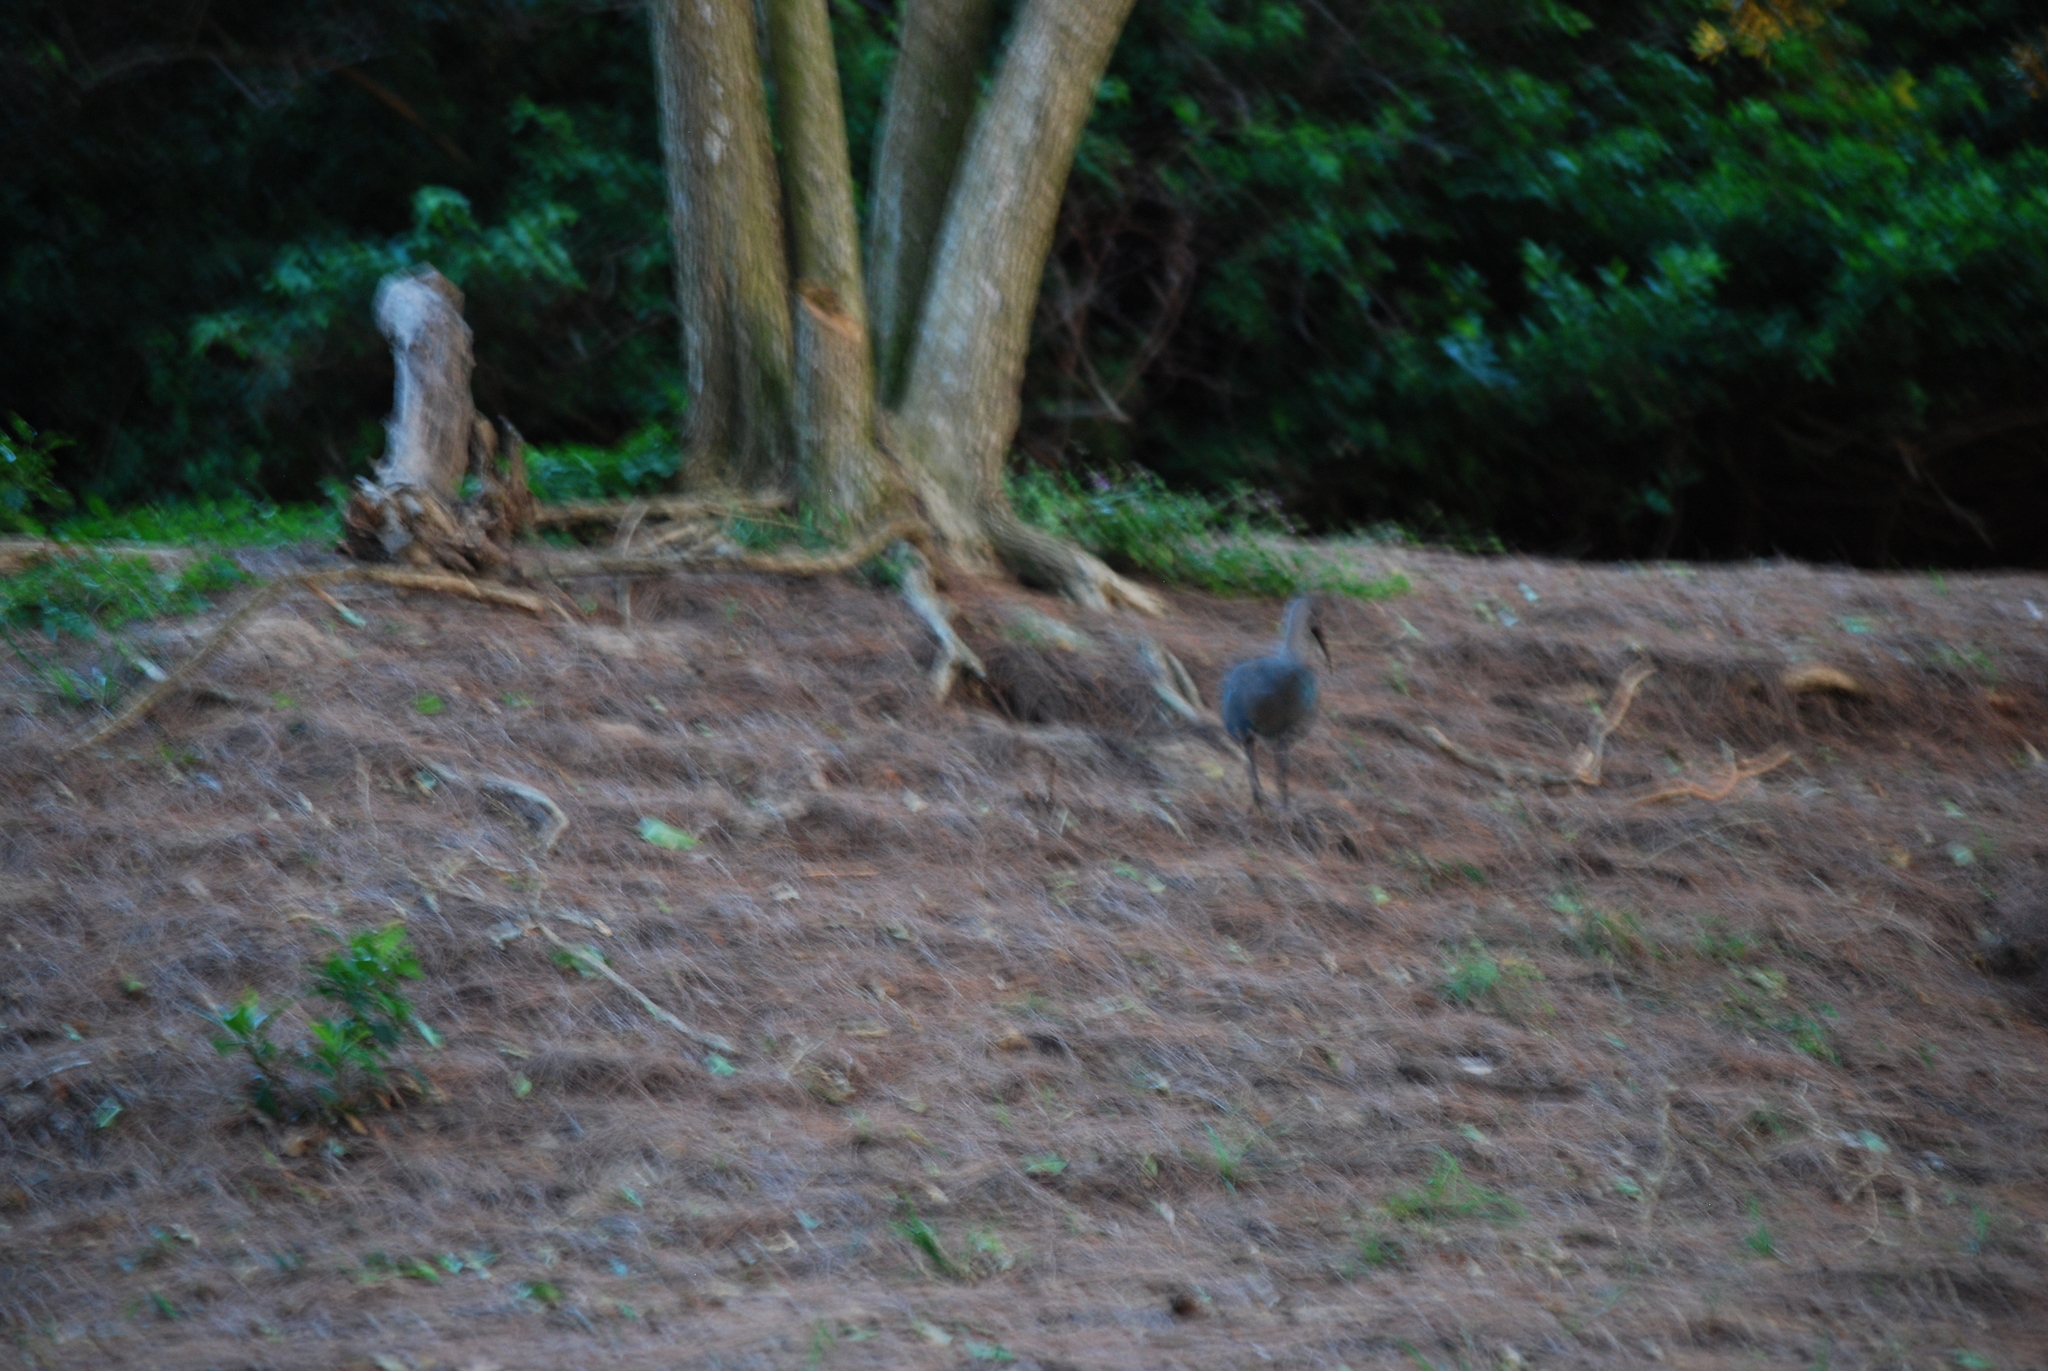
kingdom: Animalia
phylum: Chordata
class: Aves
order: Pelecaniformes
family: Threskiornithidae
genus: Bostrychia
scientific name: Bostrychia hagedash
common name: Hadada ibis
